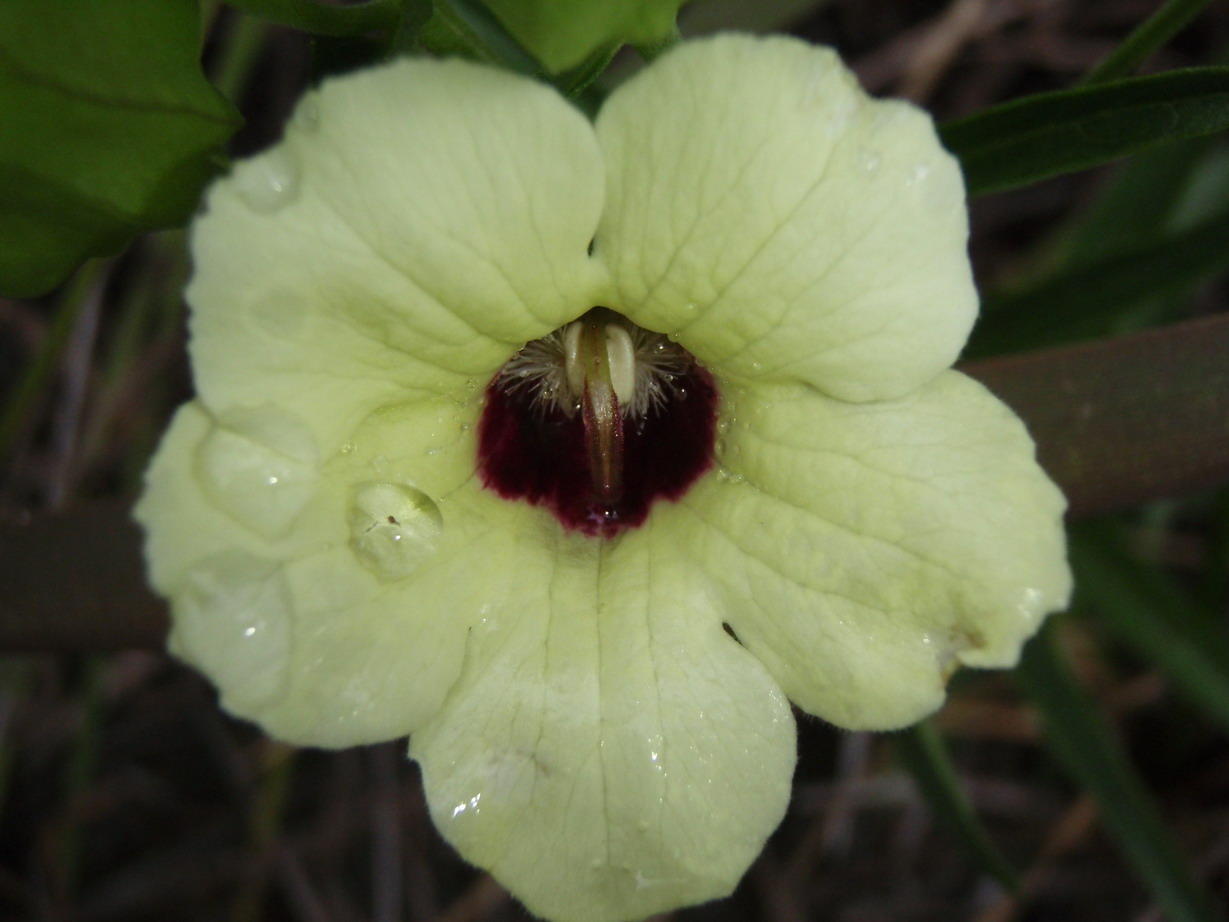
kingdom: Plantae
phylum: Tracheophyta
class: Magnoliopsida
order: Lamiales
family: Orobanchaceae
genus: Melasma
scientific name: Melasma scabrum
